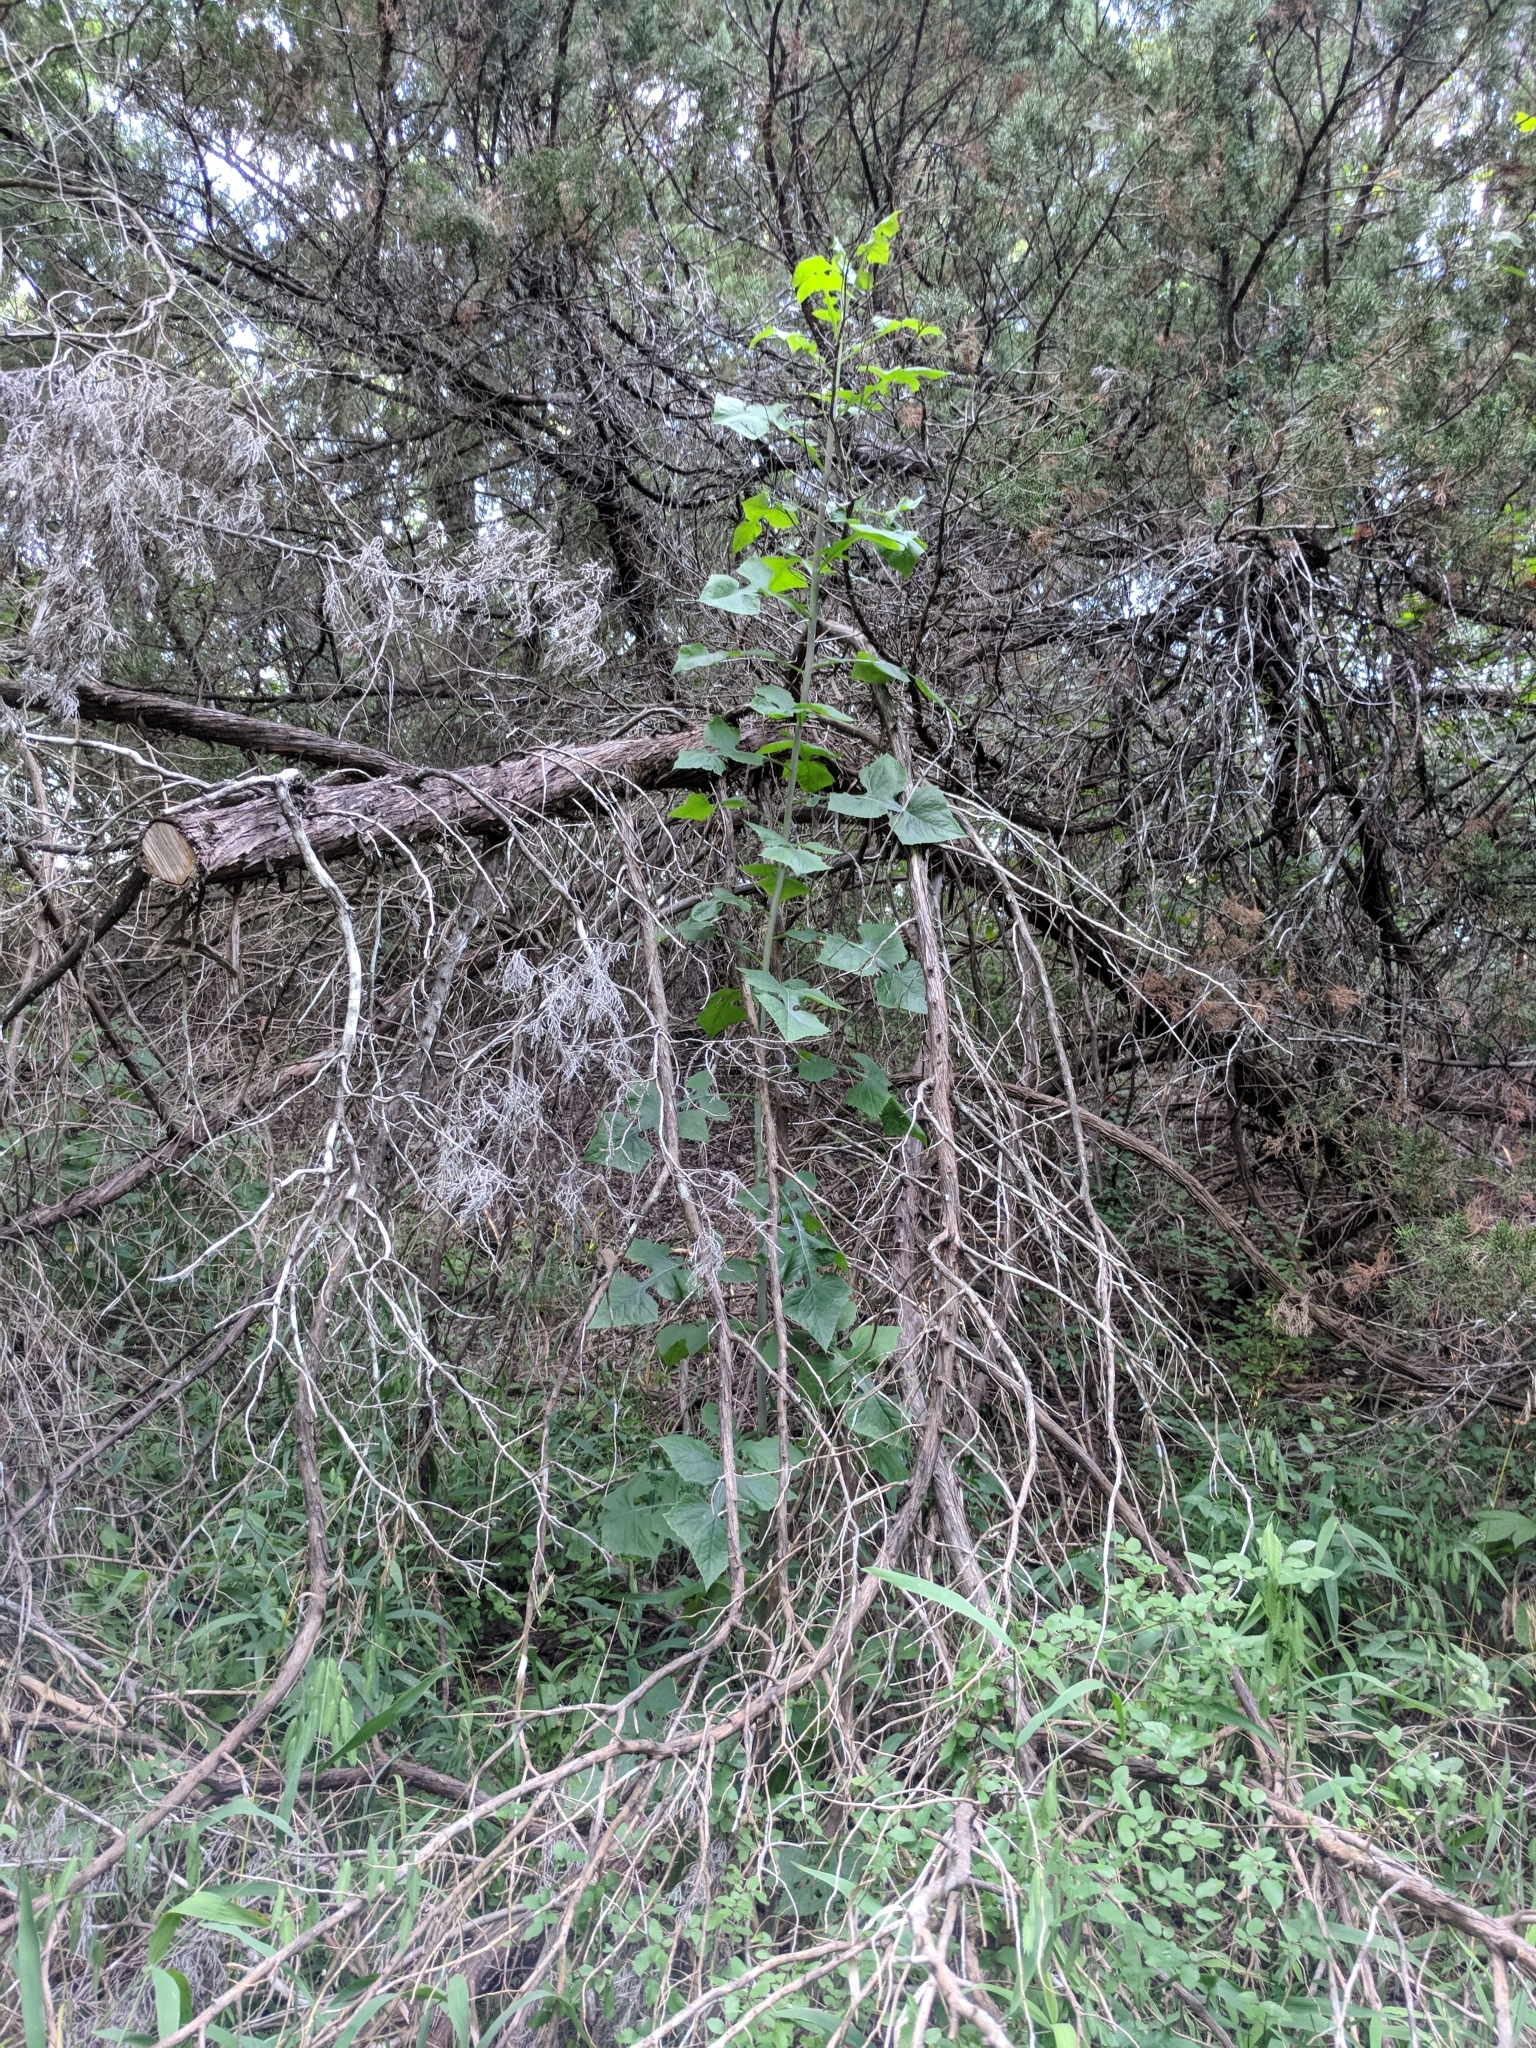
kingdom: Plantae
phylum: Tracheophyta
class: Magnoliopsida
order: Asterales
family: Asteraceae
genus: Lactuca
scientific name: Lactuca floridana
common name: Woodland lettuce
